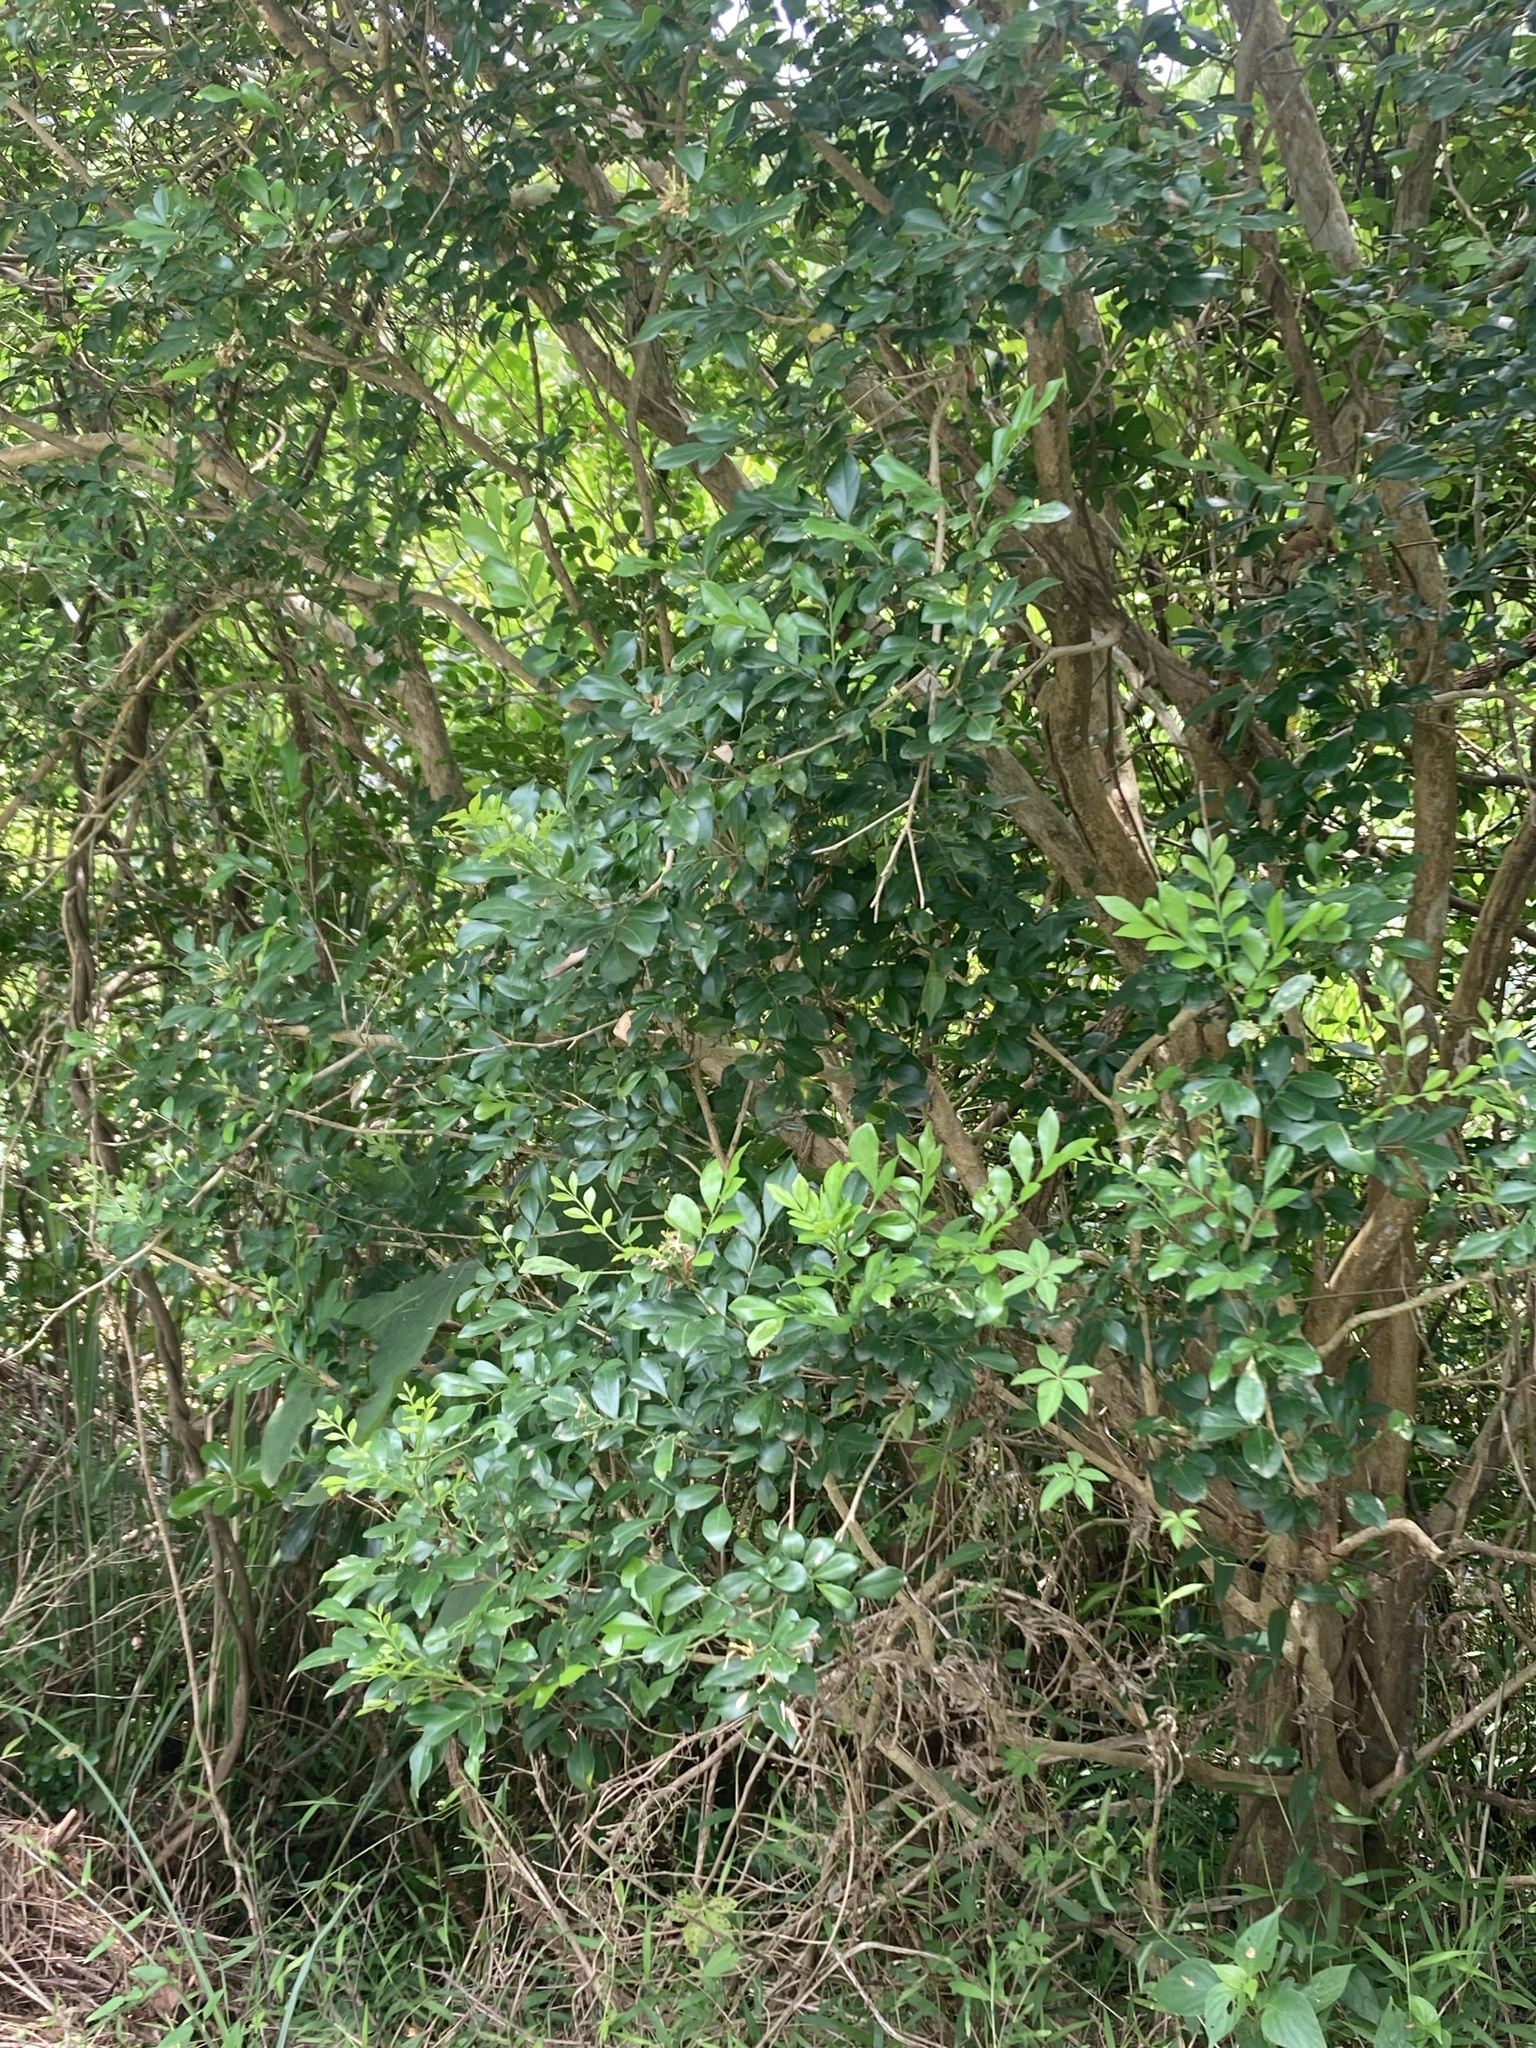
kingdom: Plantae
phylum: Tracheophyta
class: Magnoliopsida
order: Sapindales
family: Rutaceae
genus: Murraya
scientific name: Murraya paniculata
